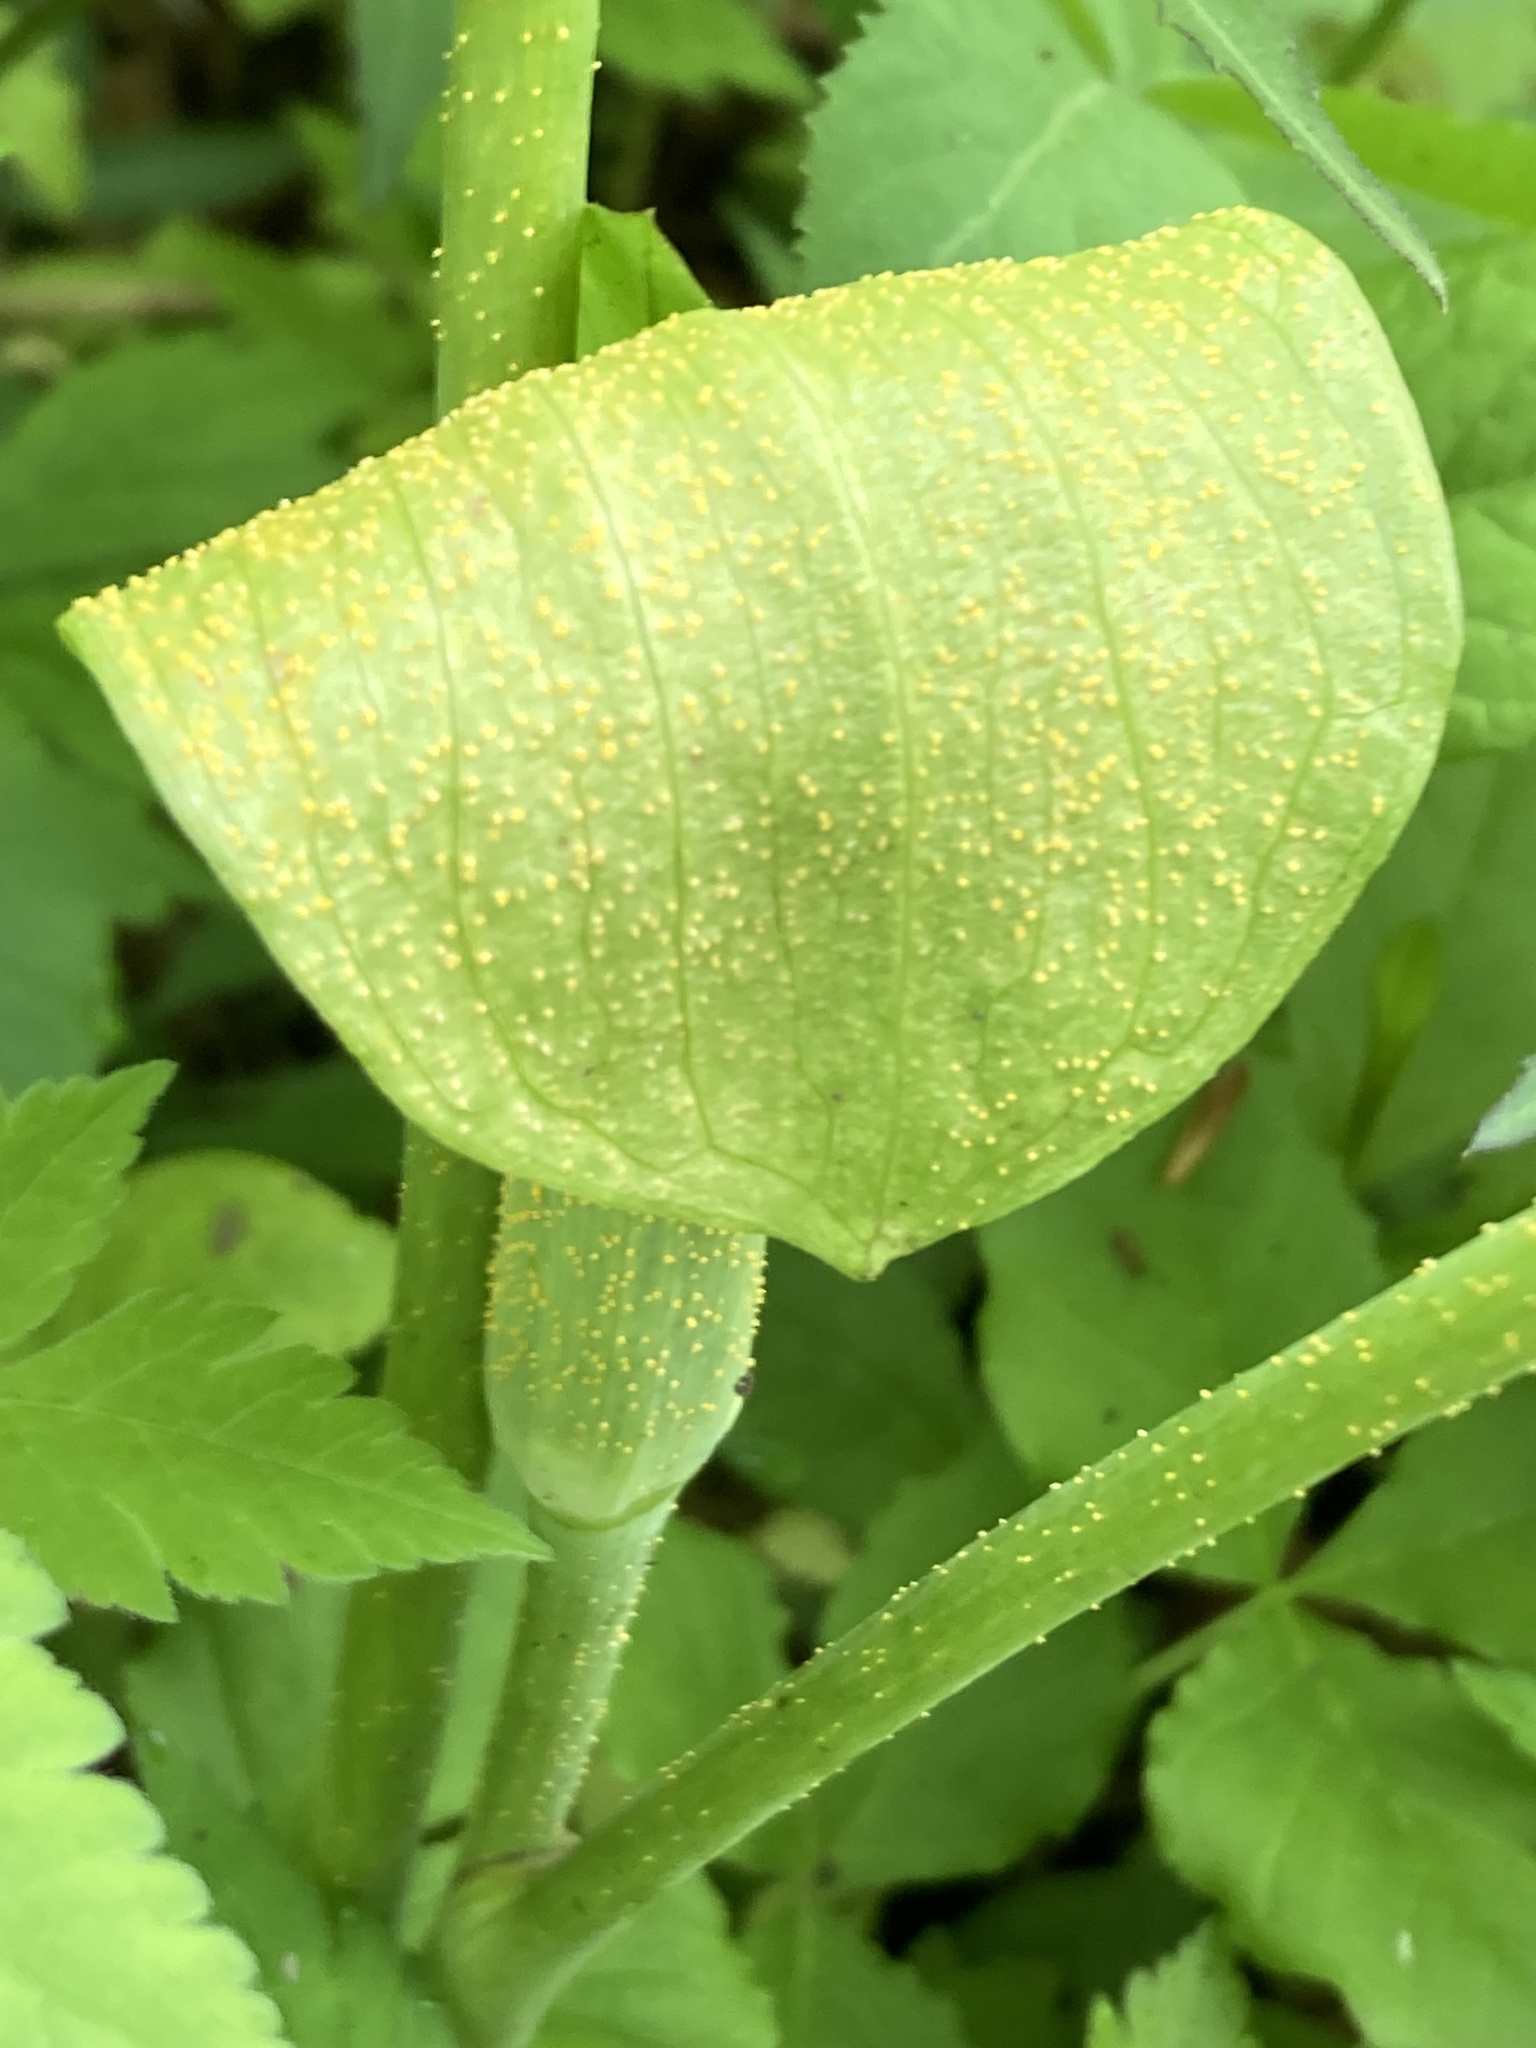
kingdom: Fungi
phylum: Basidiomycota
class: Pucciniomycetes
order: Pucciniales
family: Pucciniaceae
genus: Uromyces
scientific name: Uromyces ari-triphylli
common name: Jack-in-the-pulpit rust
